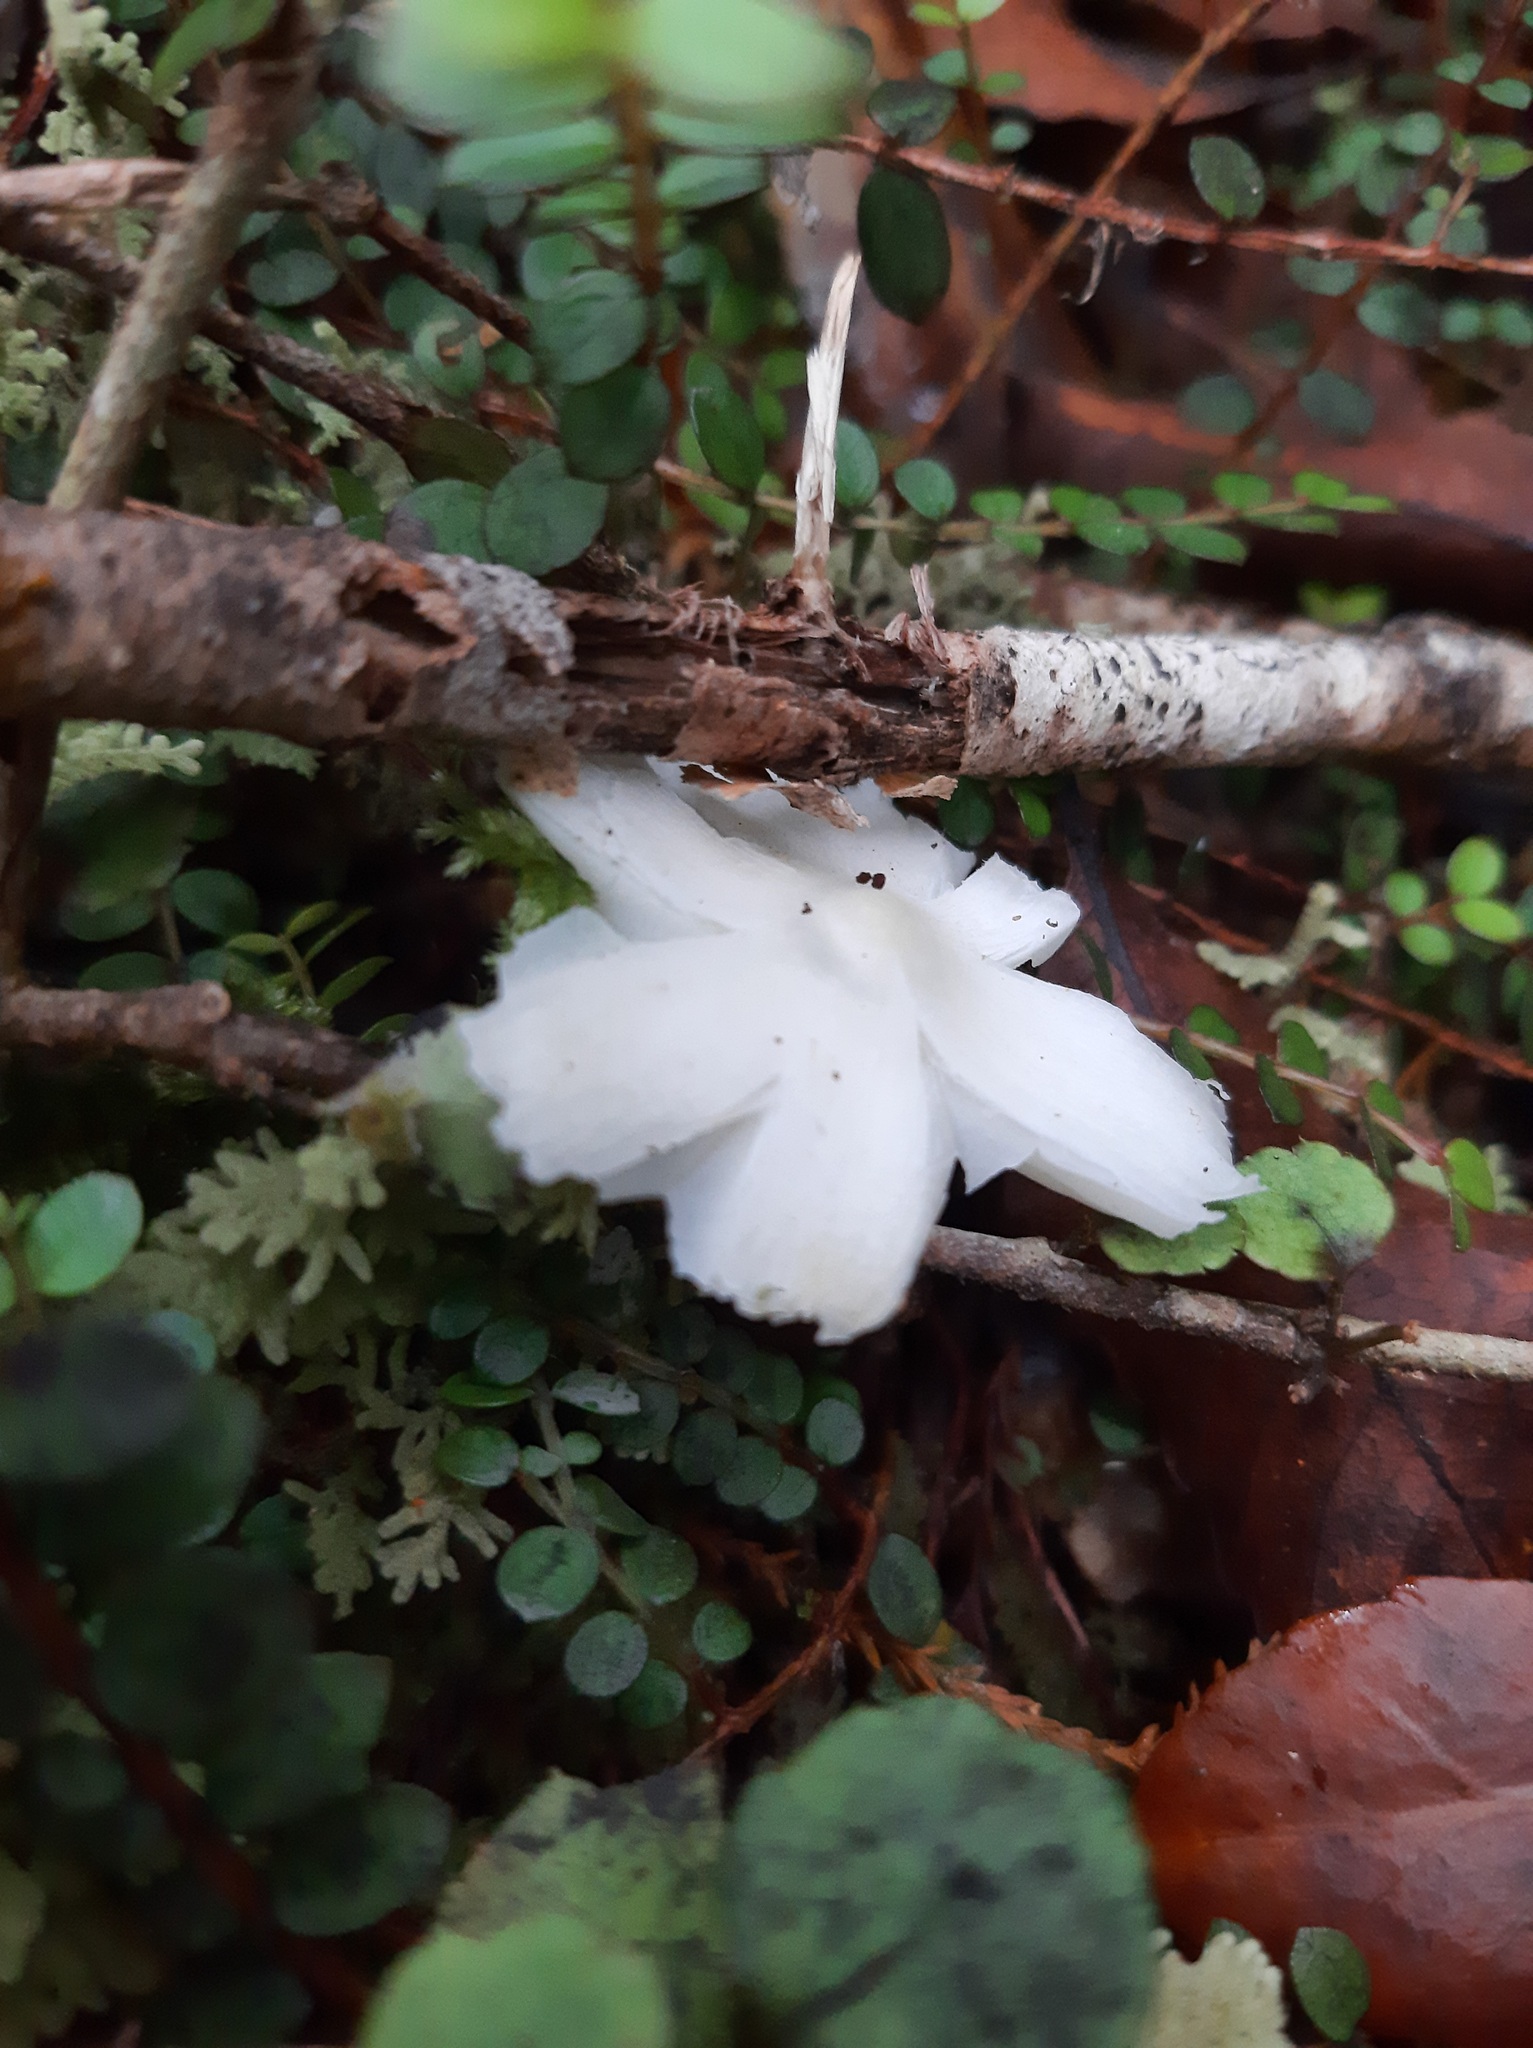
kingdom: Fungi
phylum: Basidiomycota
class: Agaricomycetes
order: Agaricales
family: Hygrophoraceae
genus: Humidicutis
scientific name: Humidicutis mavis
